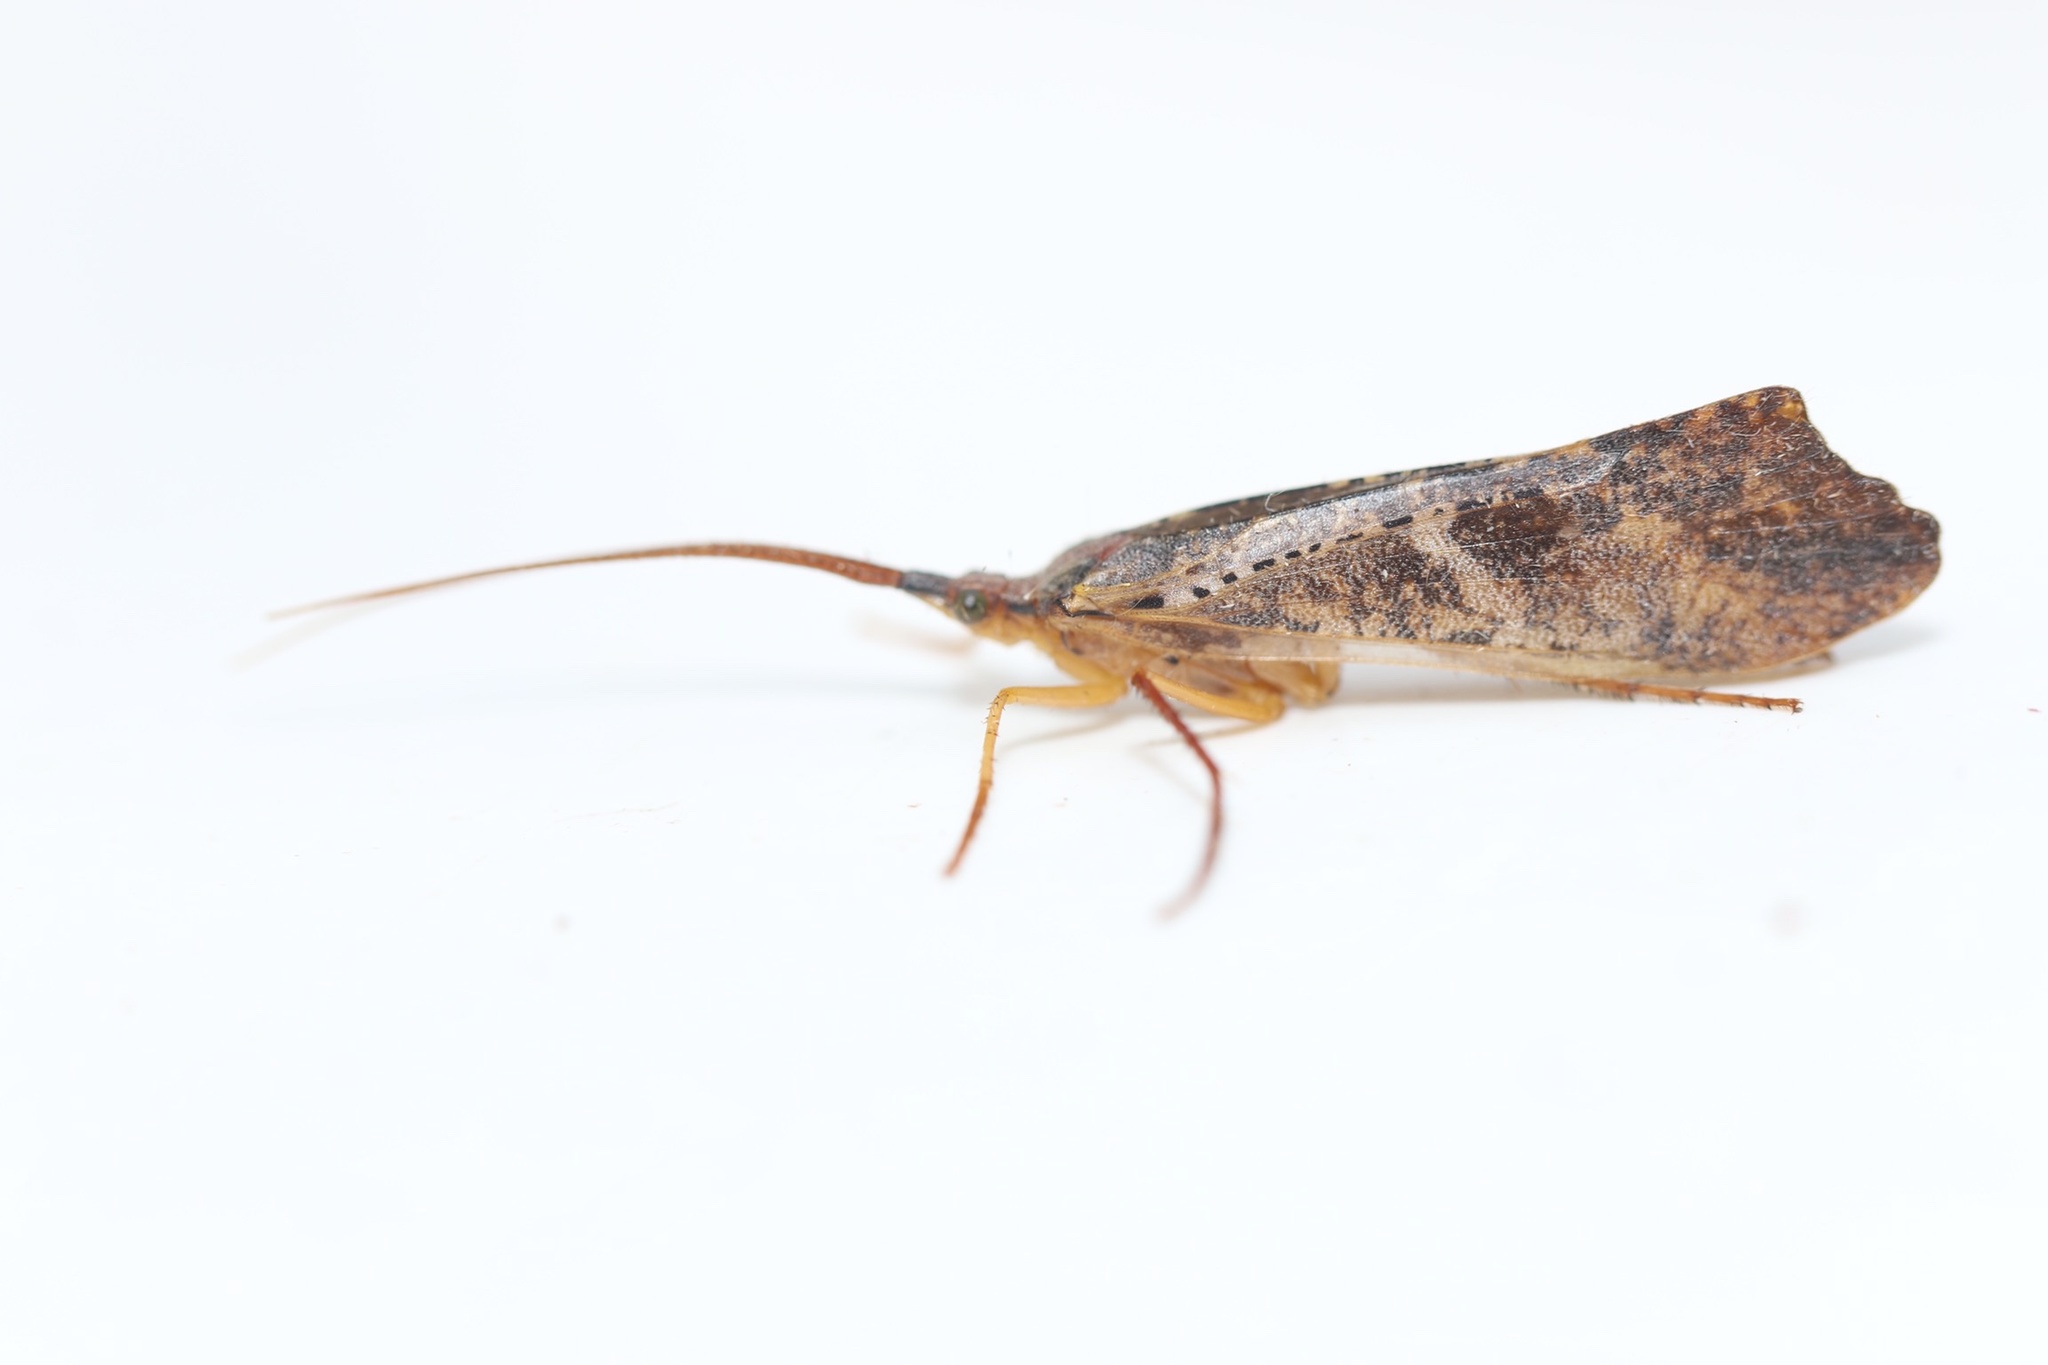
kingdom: Animalia
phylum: Arthropoda
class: Insecta
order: Trichoptera
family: Limnephilidae
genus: Nemotaulius
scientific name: Nemotaulius hostilis
